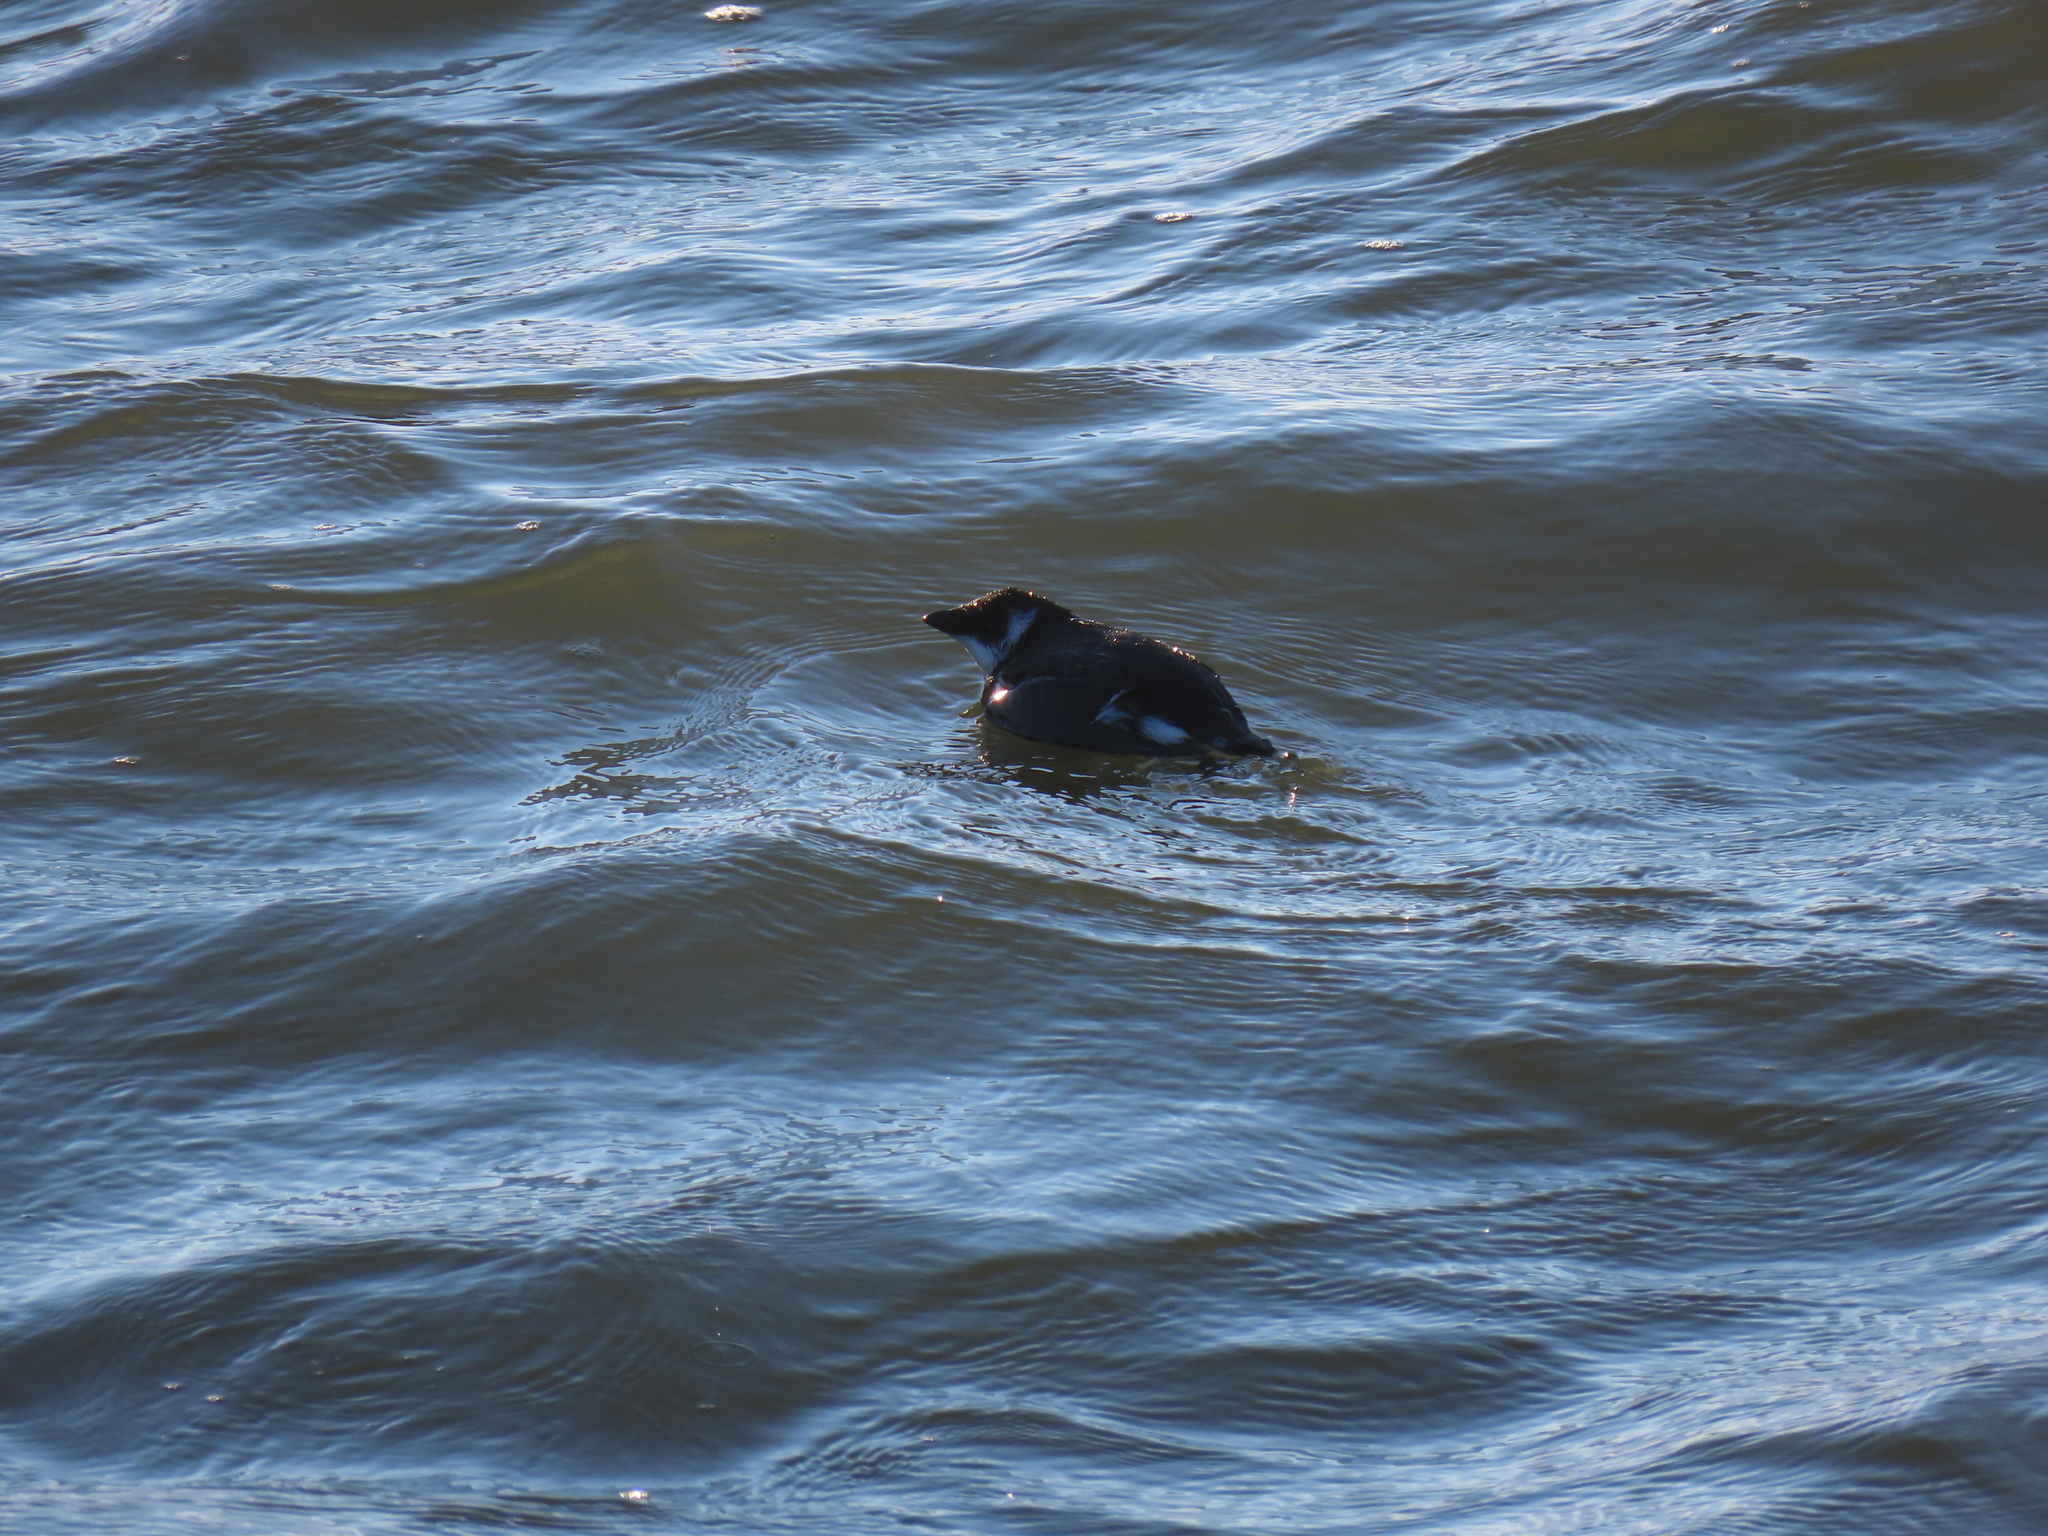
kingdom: Animalia
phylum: Chordata
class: Aves
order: Charadriiformes
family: Alcidae
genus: Alle
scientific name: Alle alle
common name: Little auk
